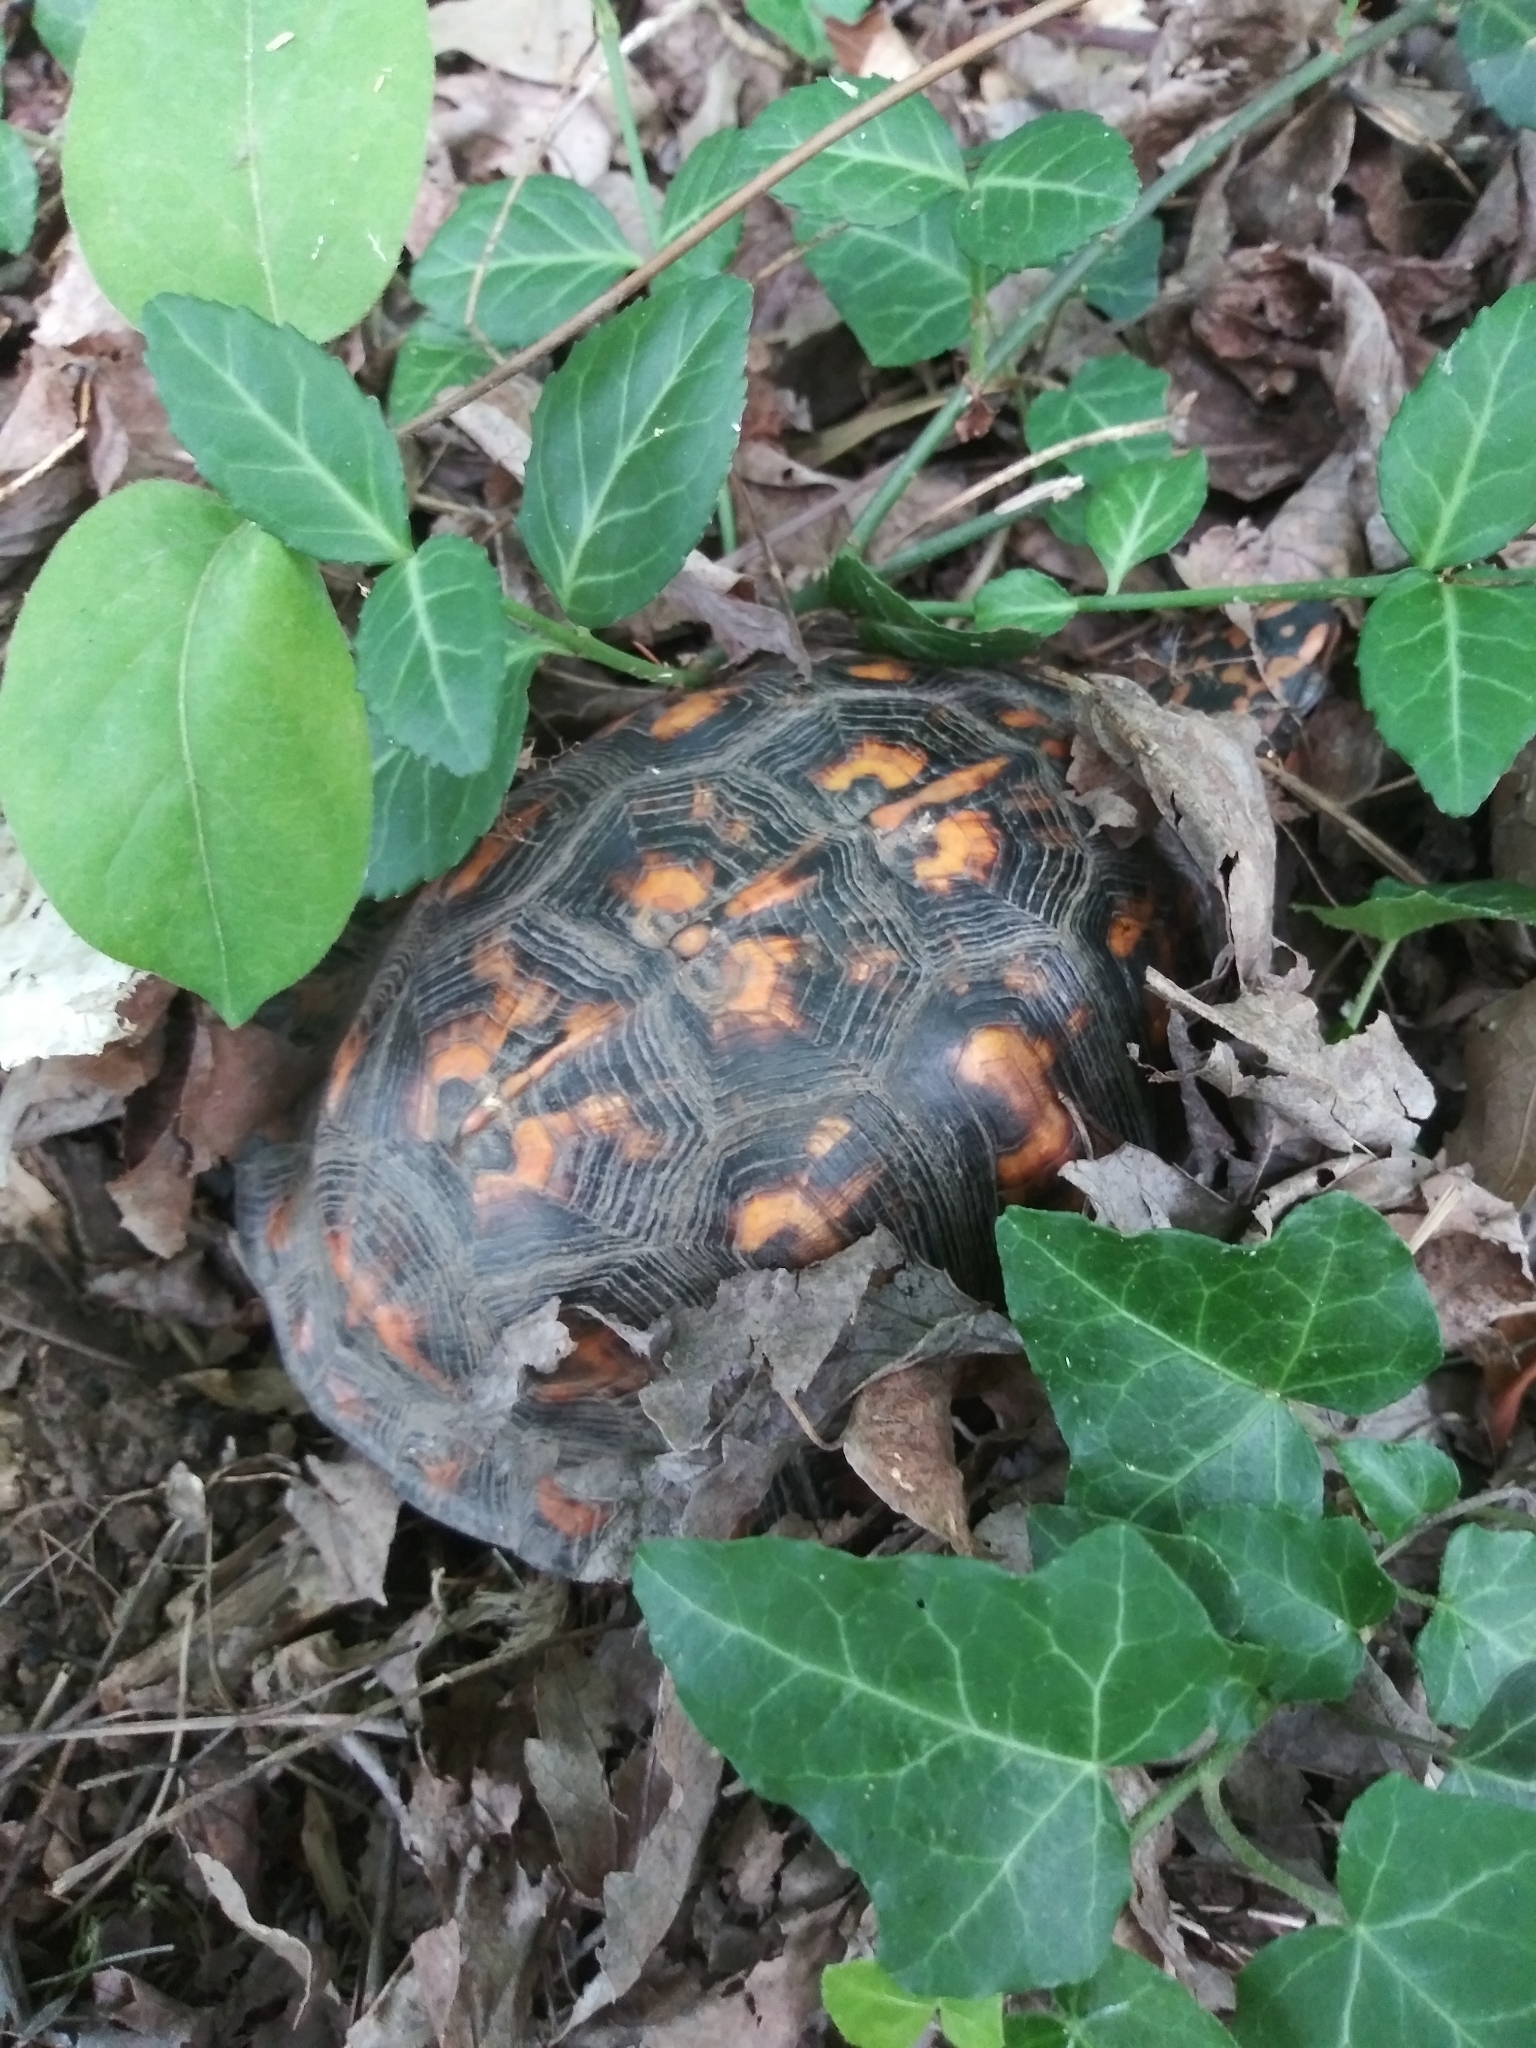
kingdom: Animalia
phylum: Chordata
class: Testudines
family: Emydidae
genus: Terrapene
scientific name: Terrapene carolina
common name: Common box turtle
